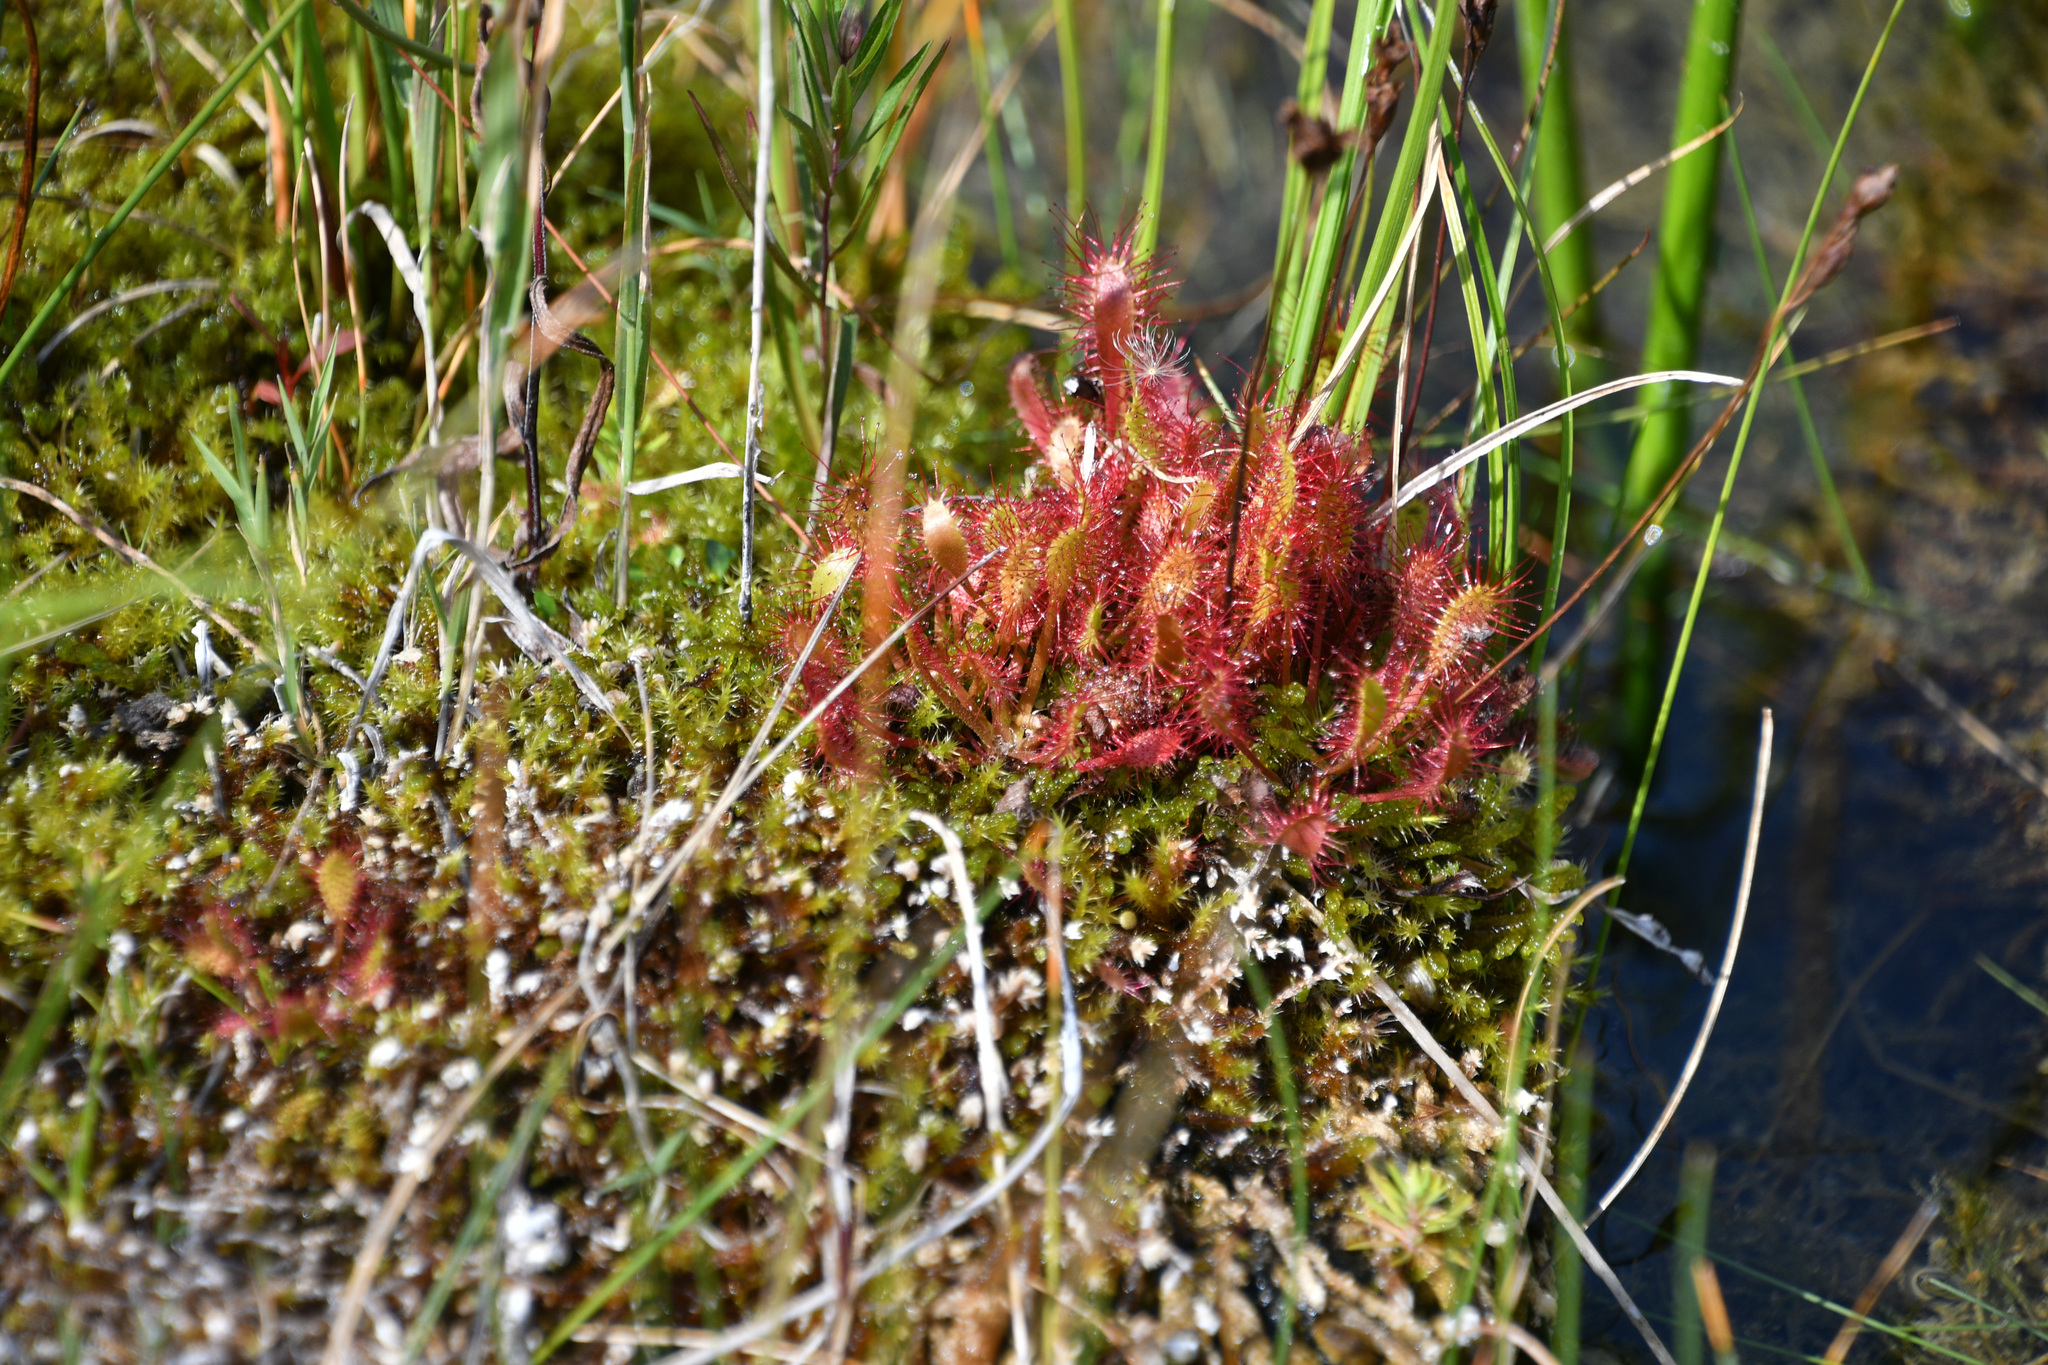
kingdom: Plantae
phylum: Tracheophyta
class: Magnoliopsida
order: Caryophyllales
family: Droseraceae
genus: Drosera
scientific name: Drosera anglica
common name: Great sundew
